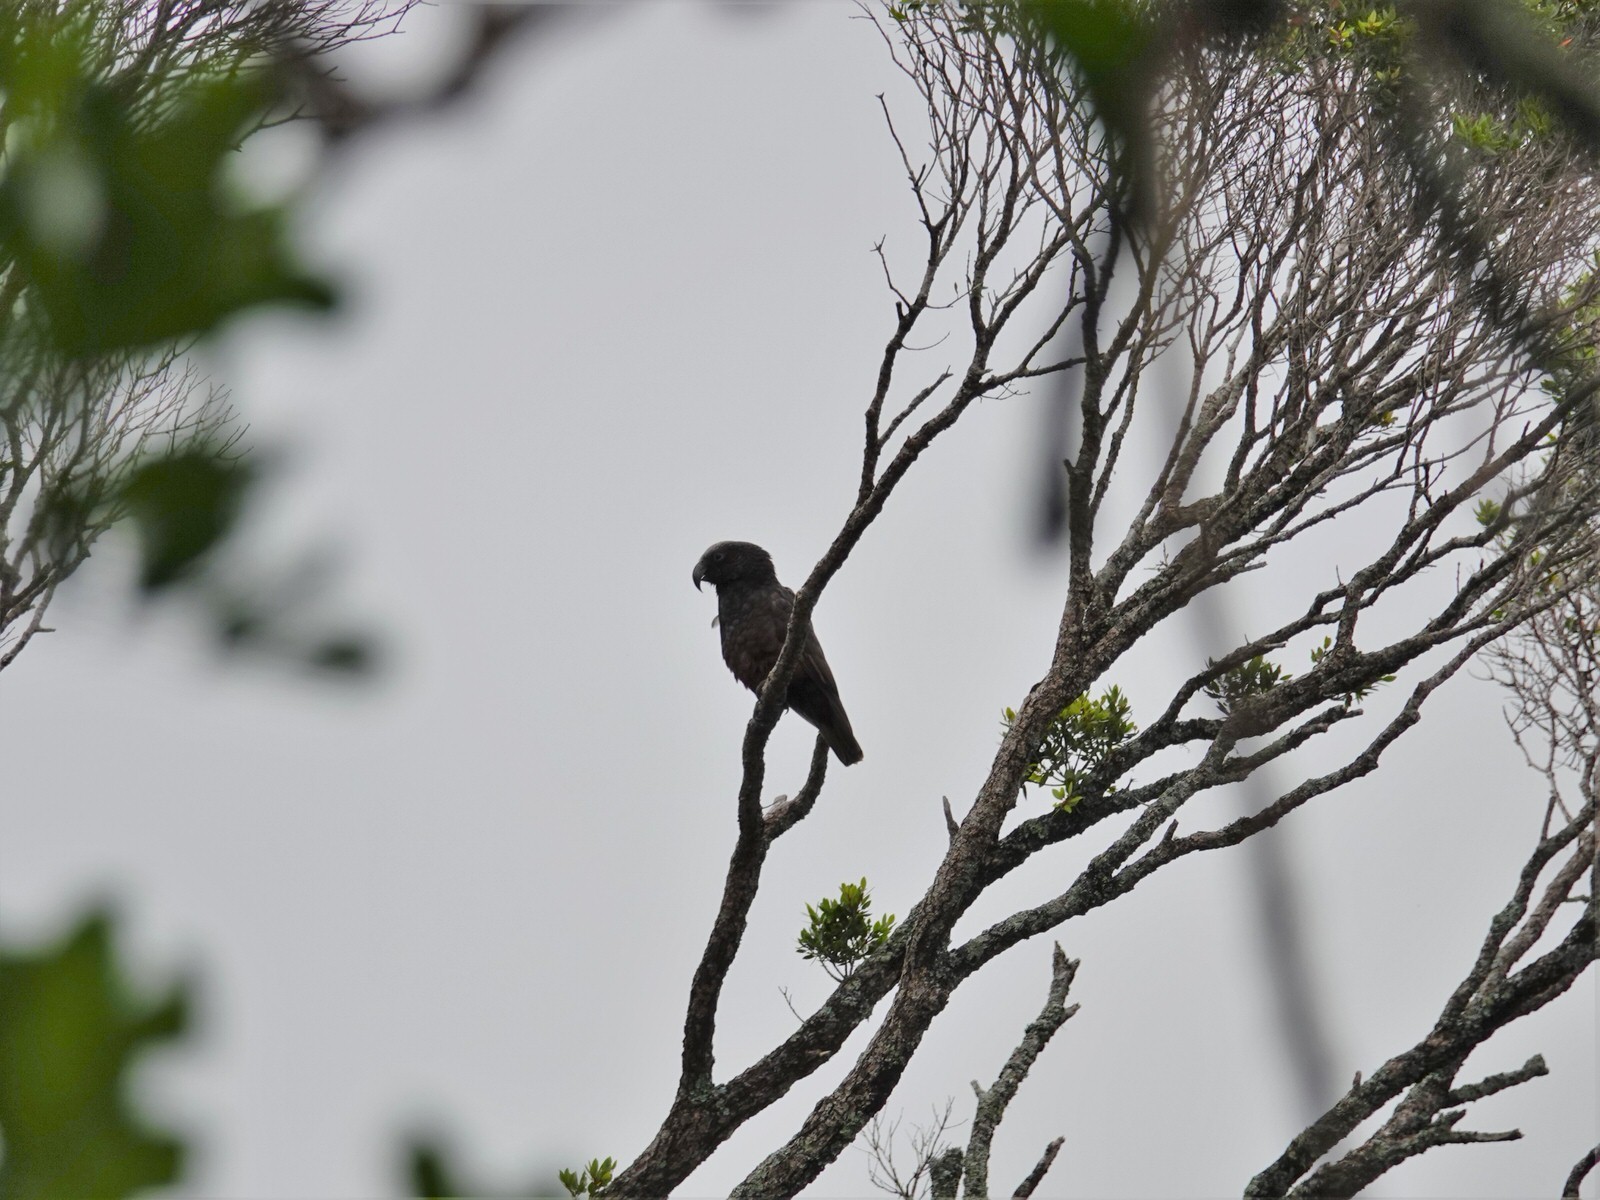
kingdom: Animalia
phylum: Chordata
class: Aves
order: Psittaciformes
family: Psittacidae
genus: Nestor
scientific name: Nestor meridionalis
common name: New zealand kaka
